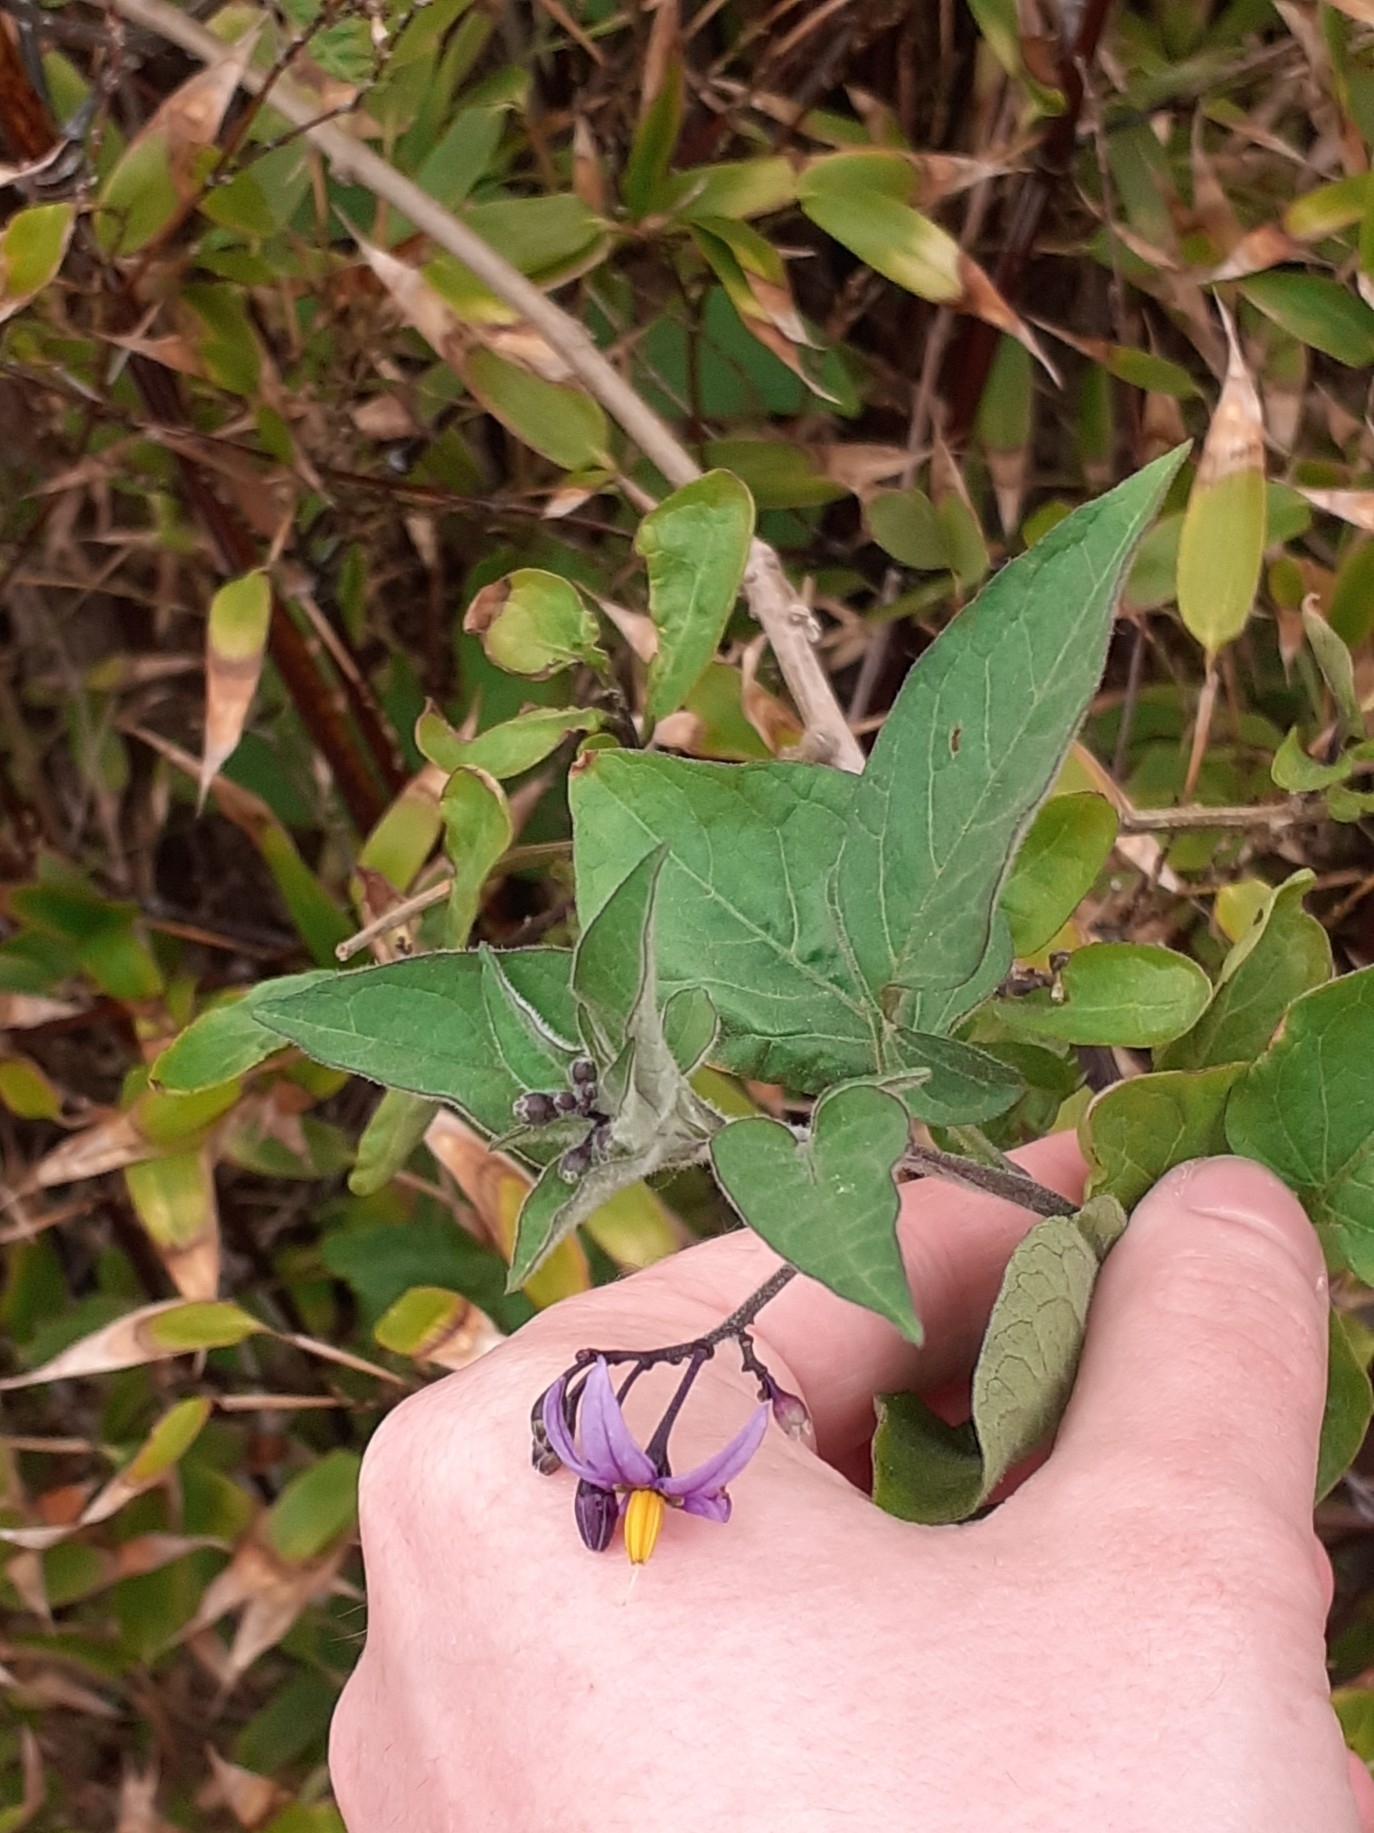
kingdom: Plantae
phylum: Tracheophyta
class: Magnoliopsida
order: Solanales
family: Solanaceae
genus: Solanum
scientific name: Solanum dulcamara
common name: Climbing nightshade
